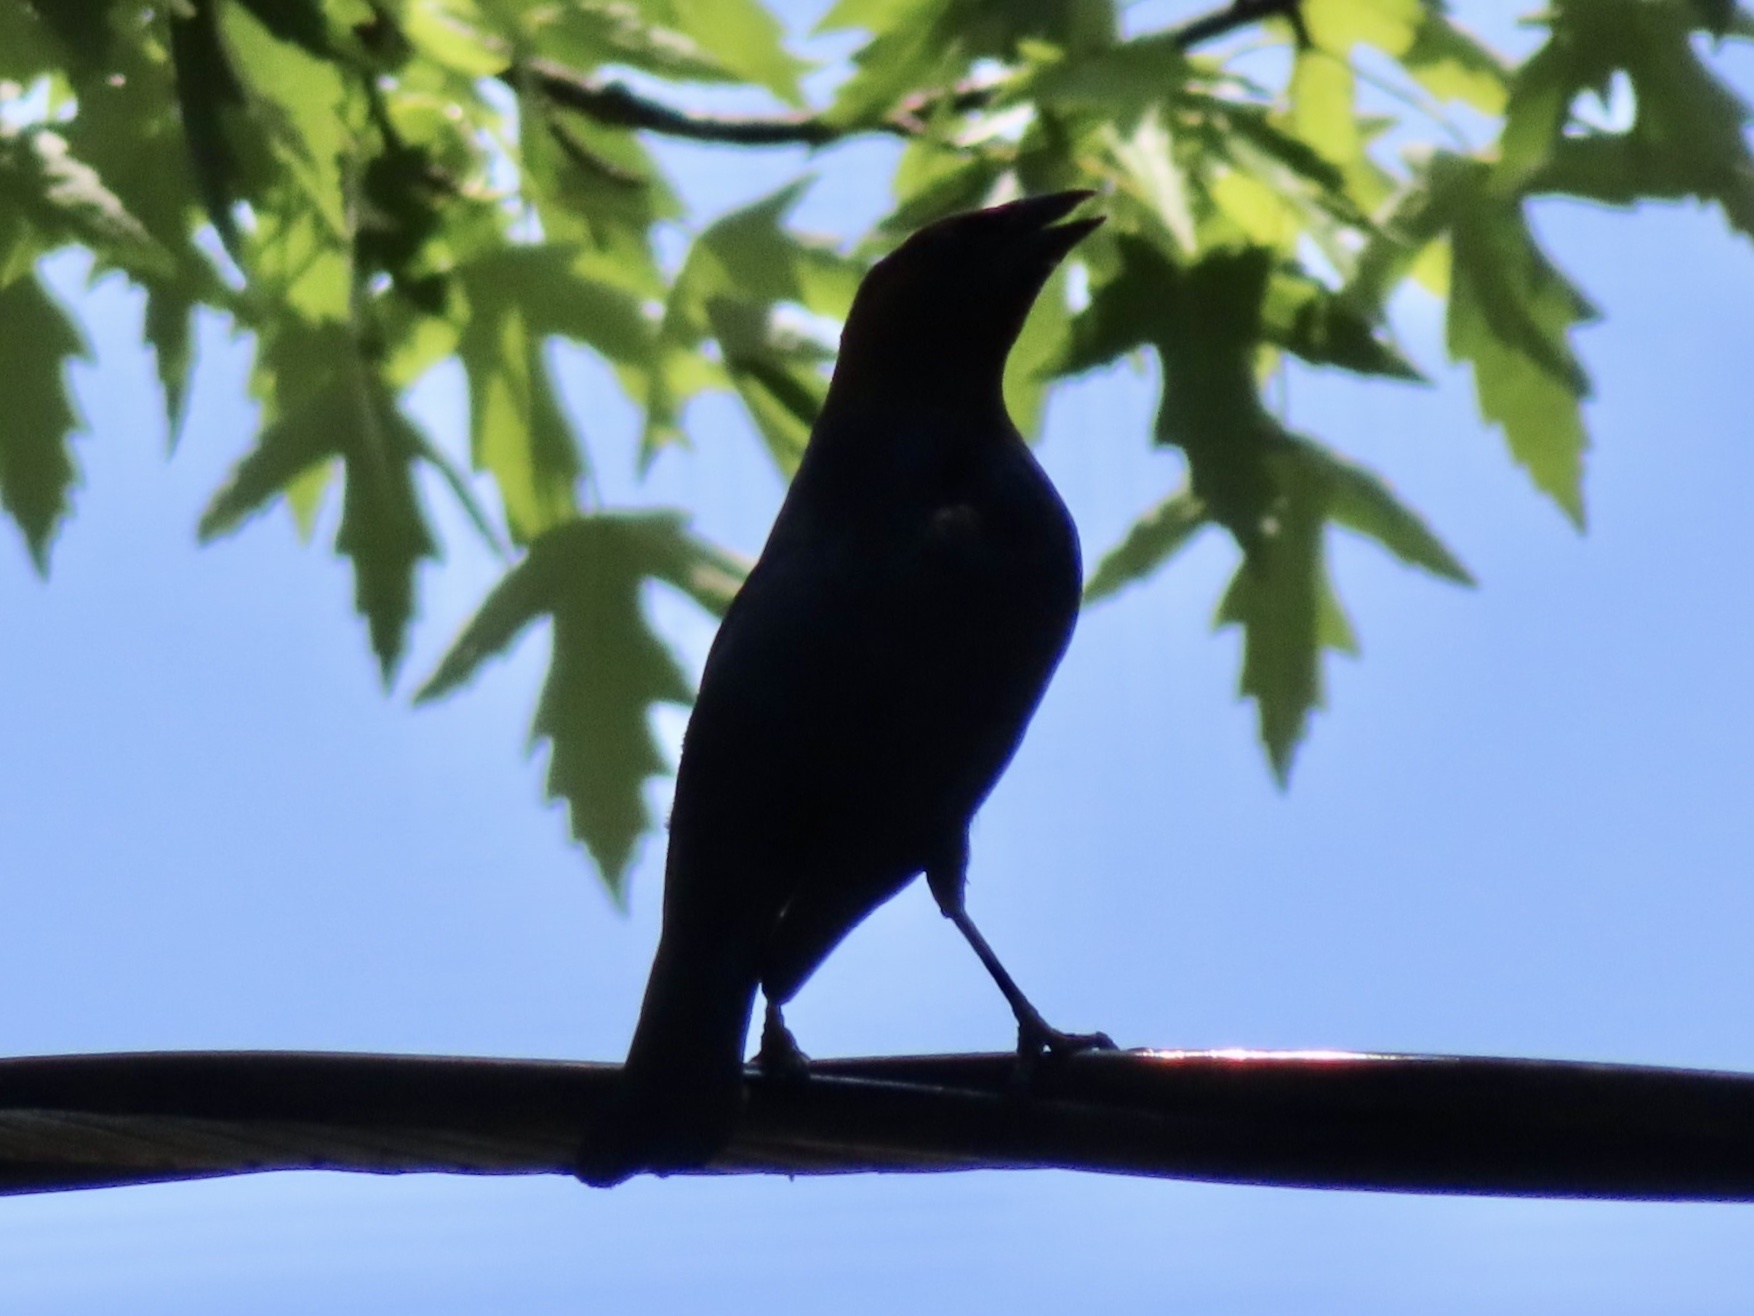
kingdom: Animalia
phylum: Chordata
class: Aves
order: Passeriformes
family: Icteridae
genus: Molothrus
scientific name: Molothrus ater
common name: Brown-headed cowbird
